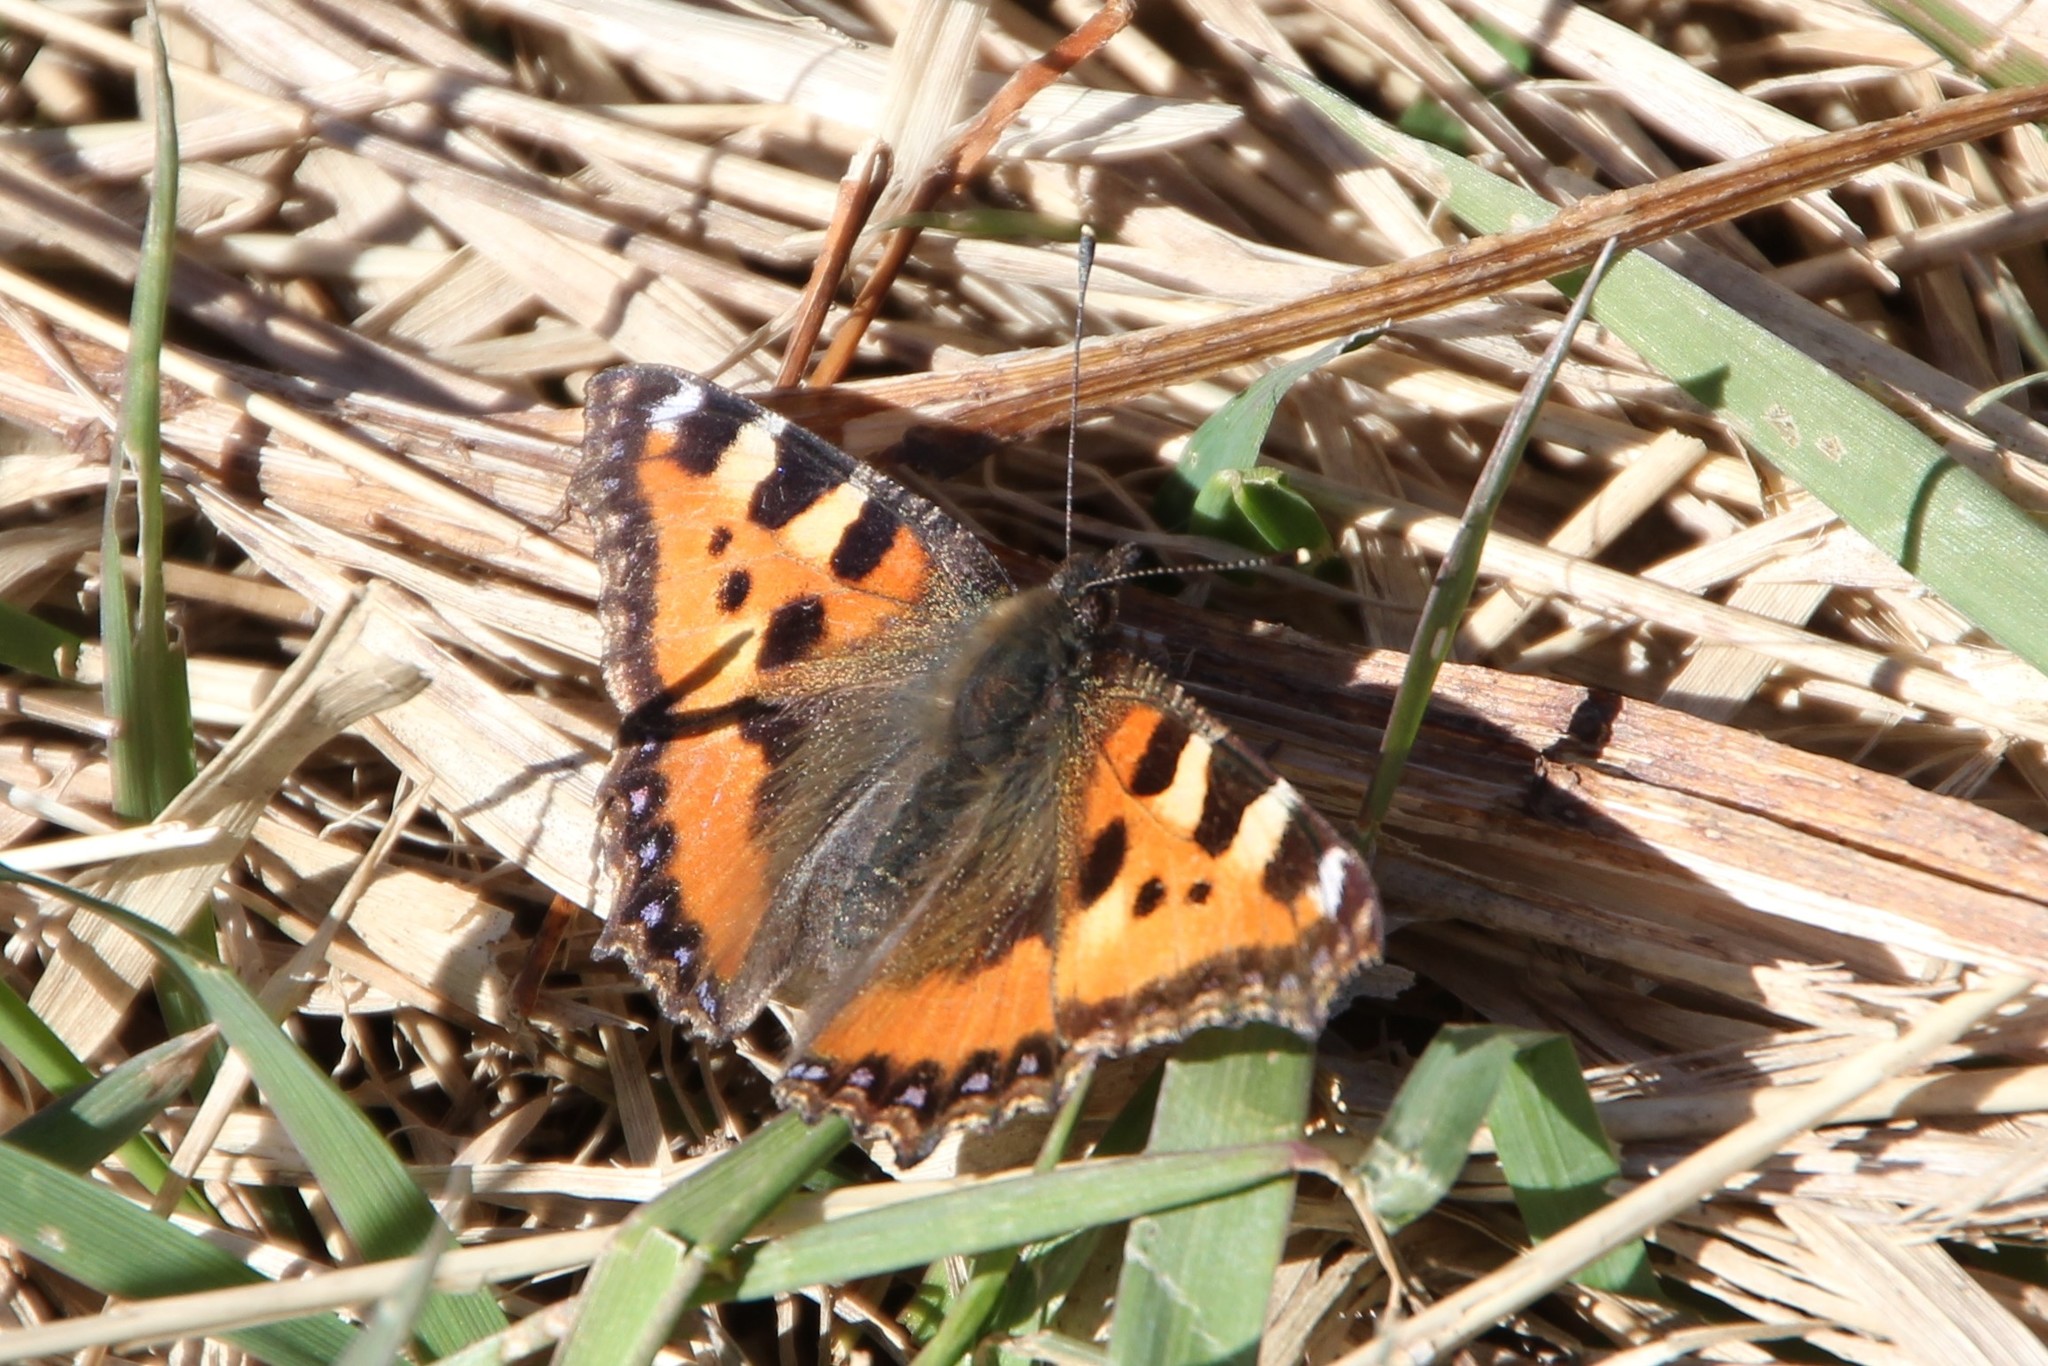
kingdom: Animalia
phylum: Arthropoda
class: Insecta
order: Lepidoptera
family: Nymphalidae
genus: Aglais
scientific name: Aglais urticae
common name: Small tortoiseshell
